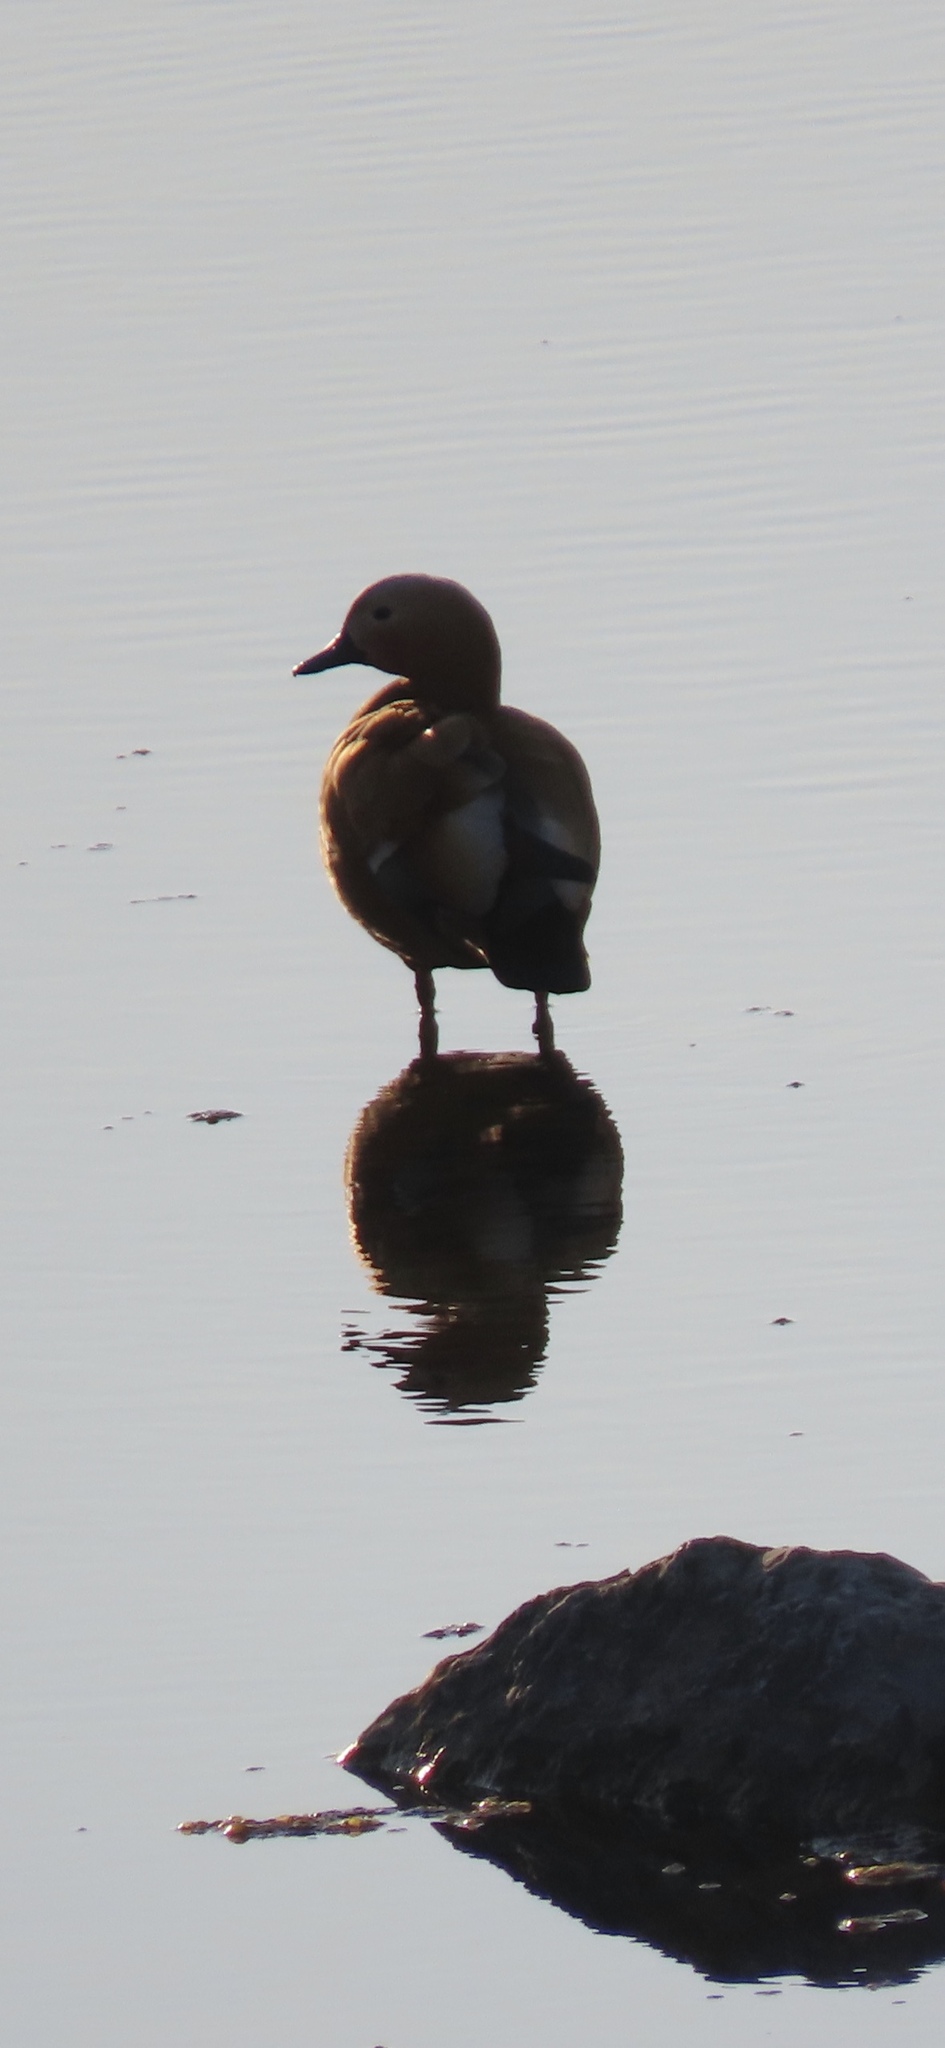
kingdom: Animalia
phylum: Chordata
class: Aves
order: Anseriformes
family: Anatidae
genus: Tadorna
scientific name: Tadorna ferruginea
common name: Ruddy shelduck
